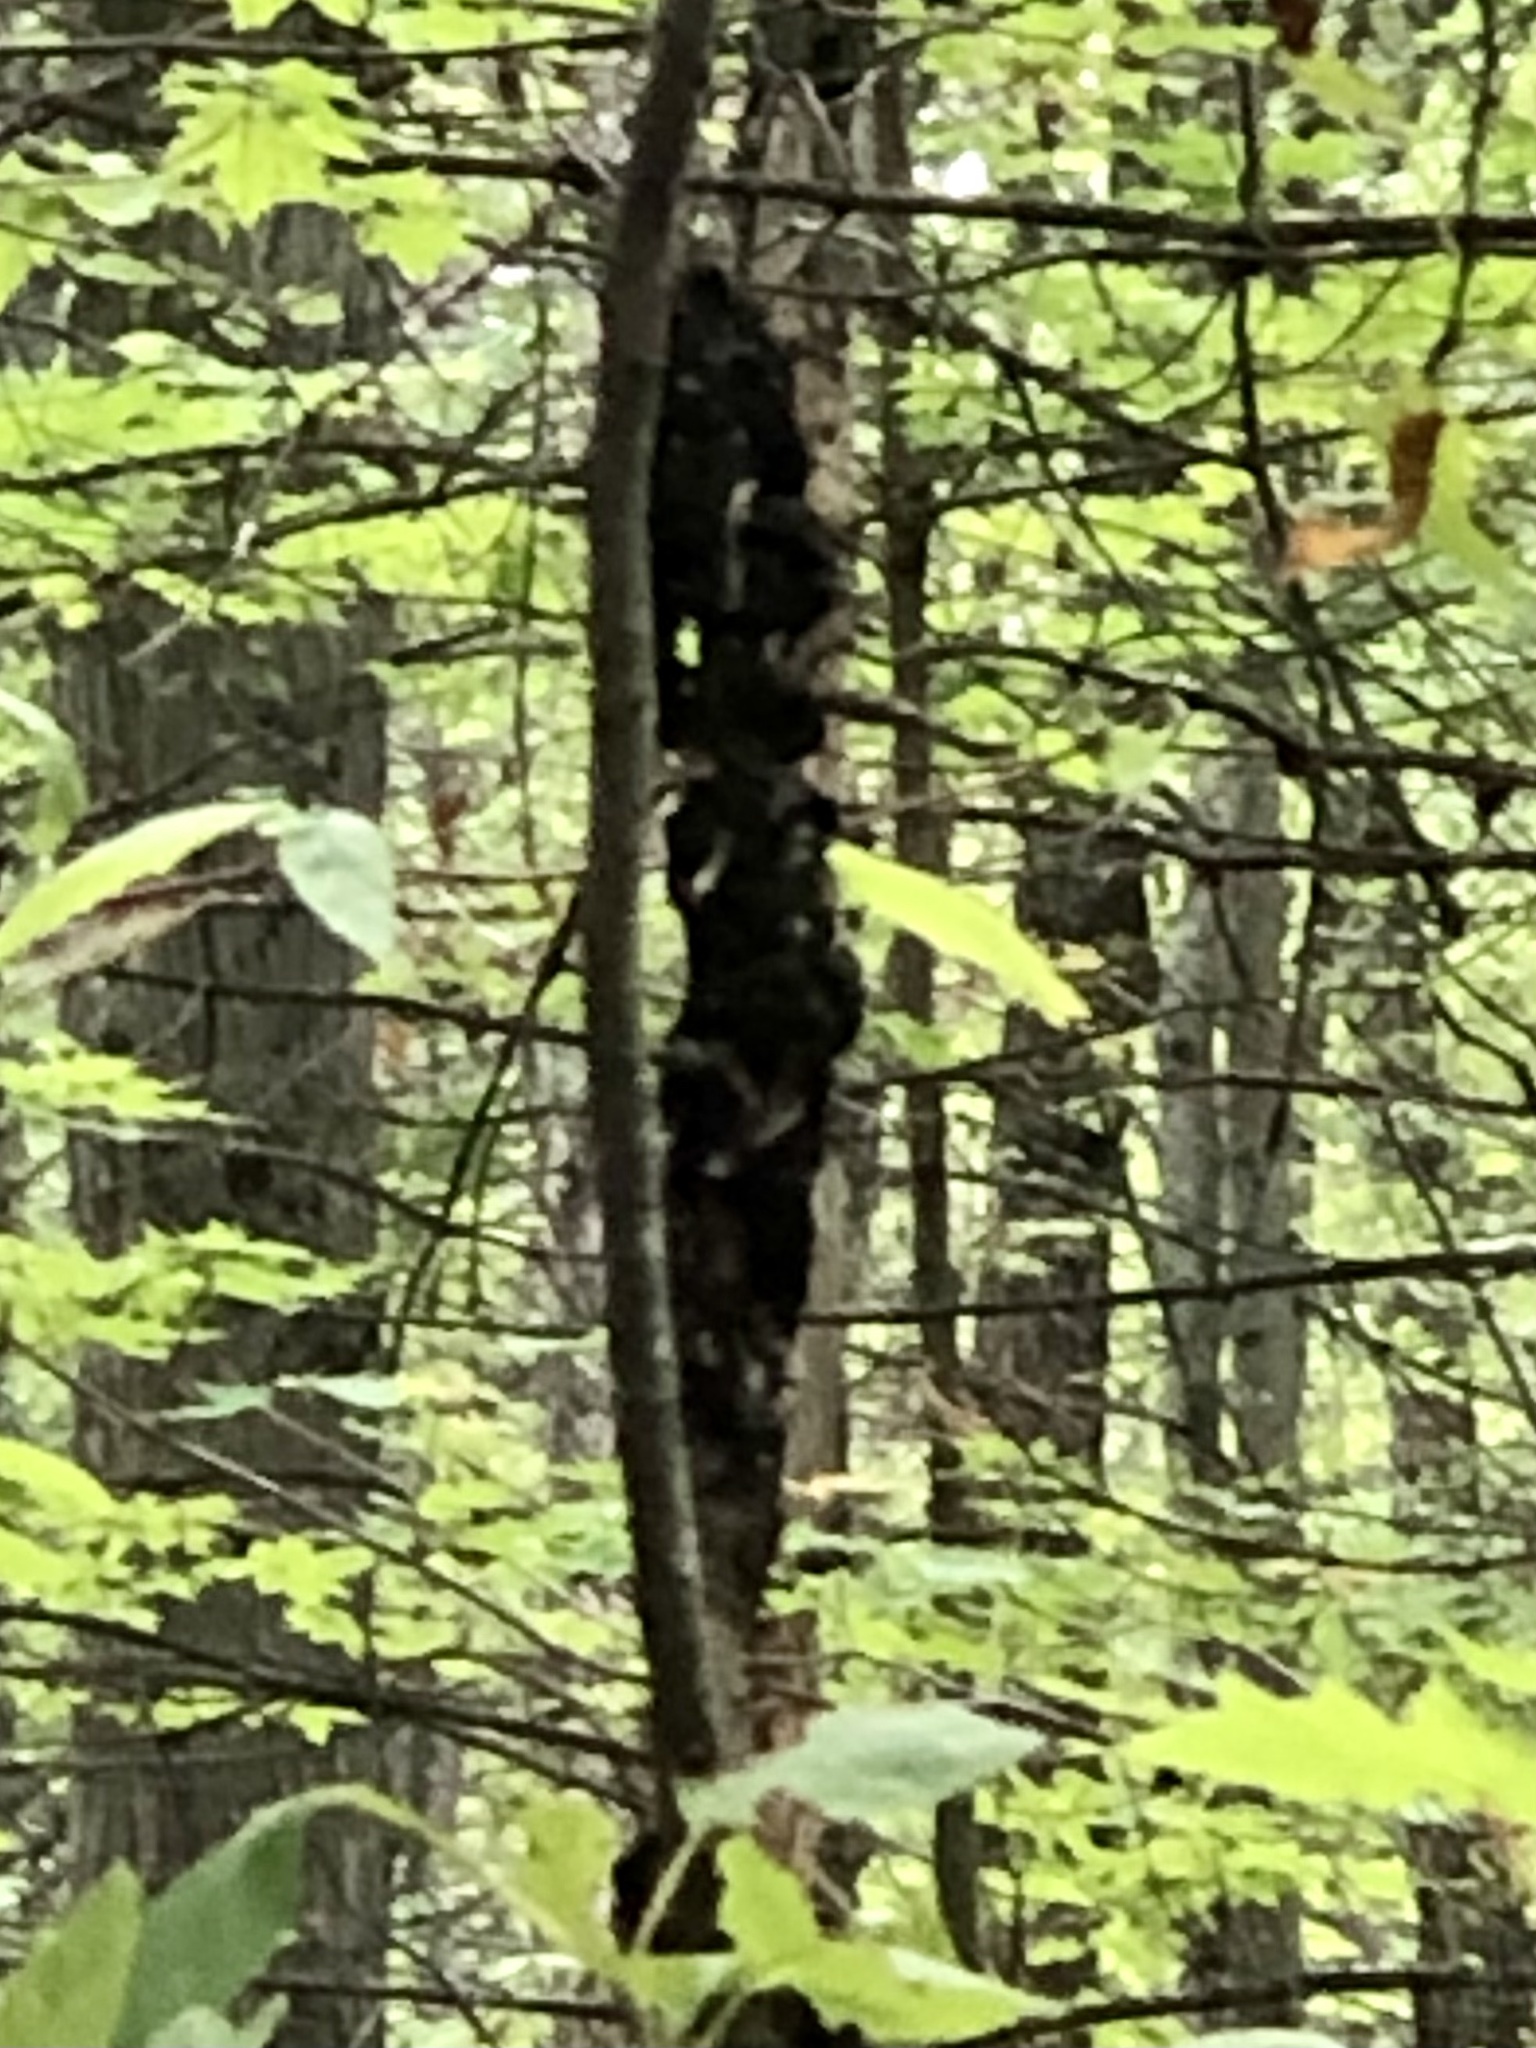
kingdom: Fungi
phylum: Ascomycota
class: Dothideomycetes
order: Venturiales
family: Venturiaceae
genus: Apiosporina
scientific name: Apiosporina morbosa
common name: Black knot
